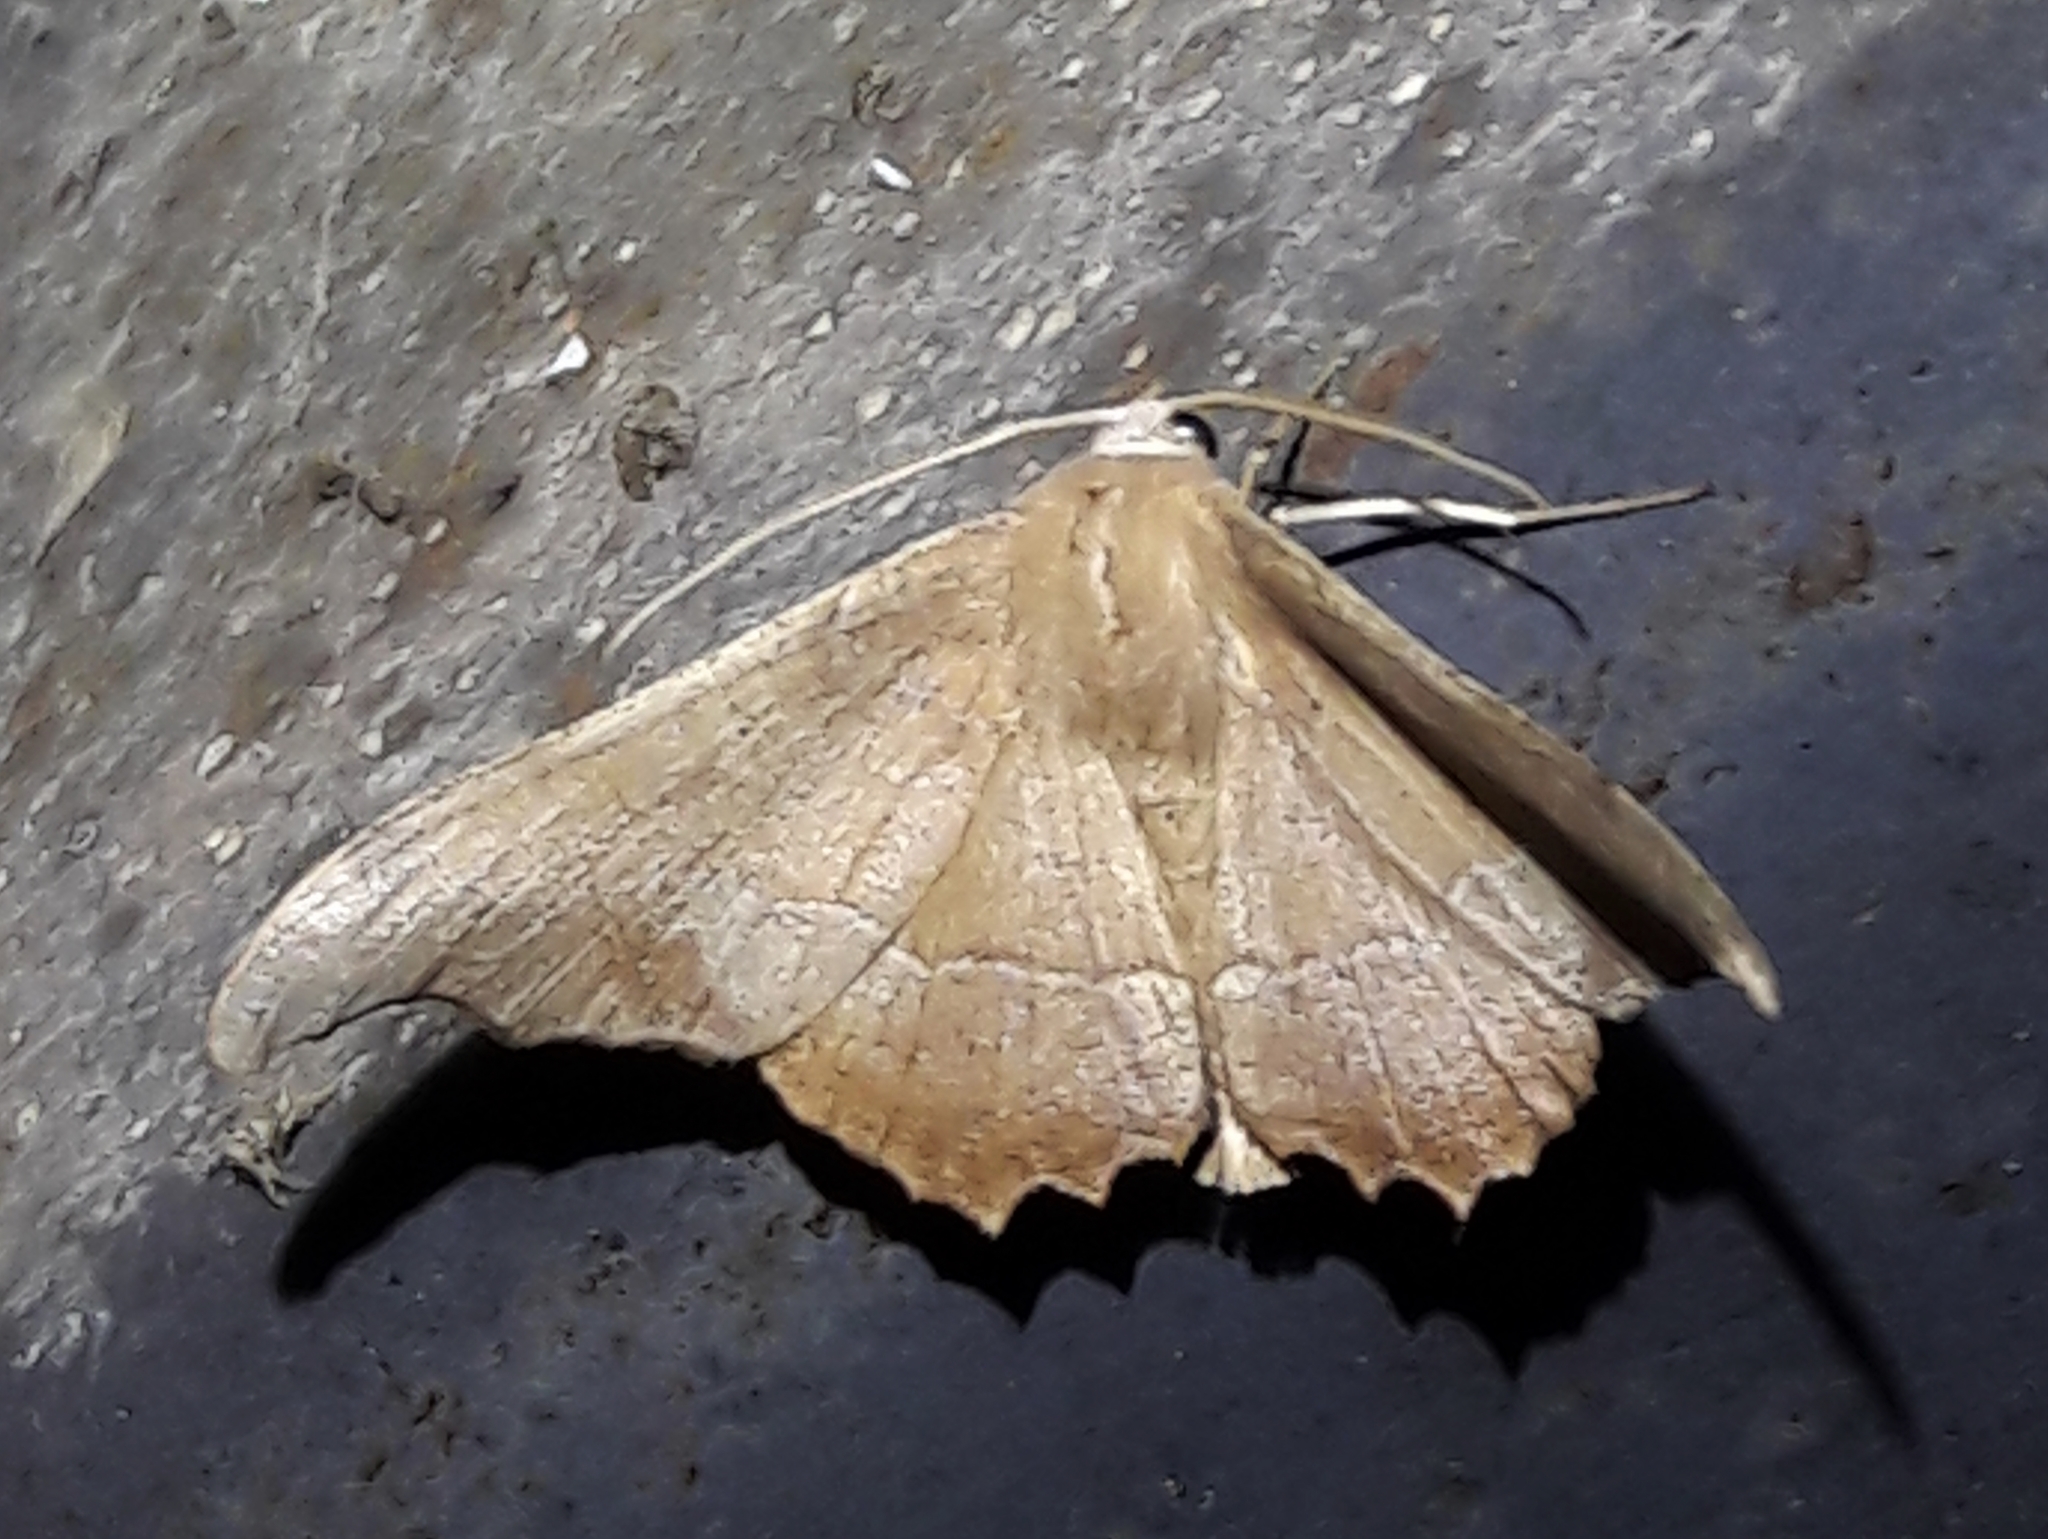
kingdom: Animalia
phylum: Arthropoda
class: Insecta
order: Lepidoptera
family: Geometridae
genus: Patalene
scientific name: Patalene aenetusaria
